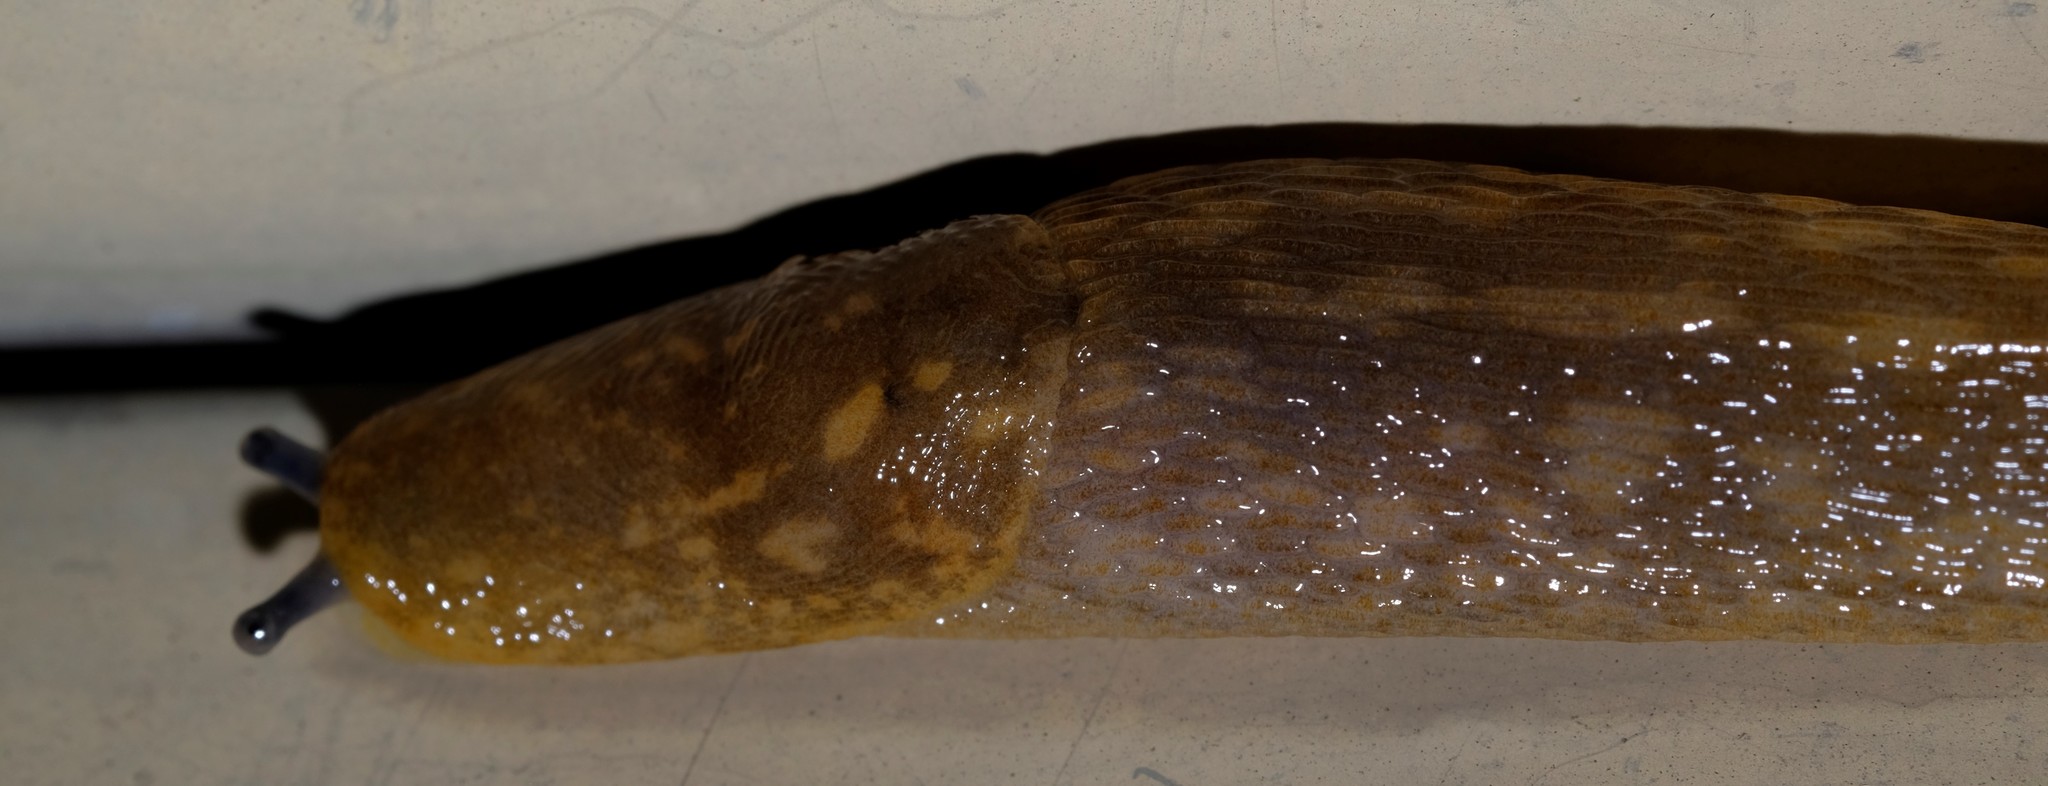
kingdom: Animalia
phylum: Mollusca
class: Gastropoda
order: Stylommatophora
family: Limacidae
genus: Limacus
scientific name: Limacus flavus
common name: Yellow gardenslug
